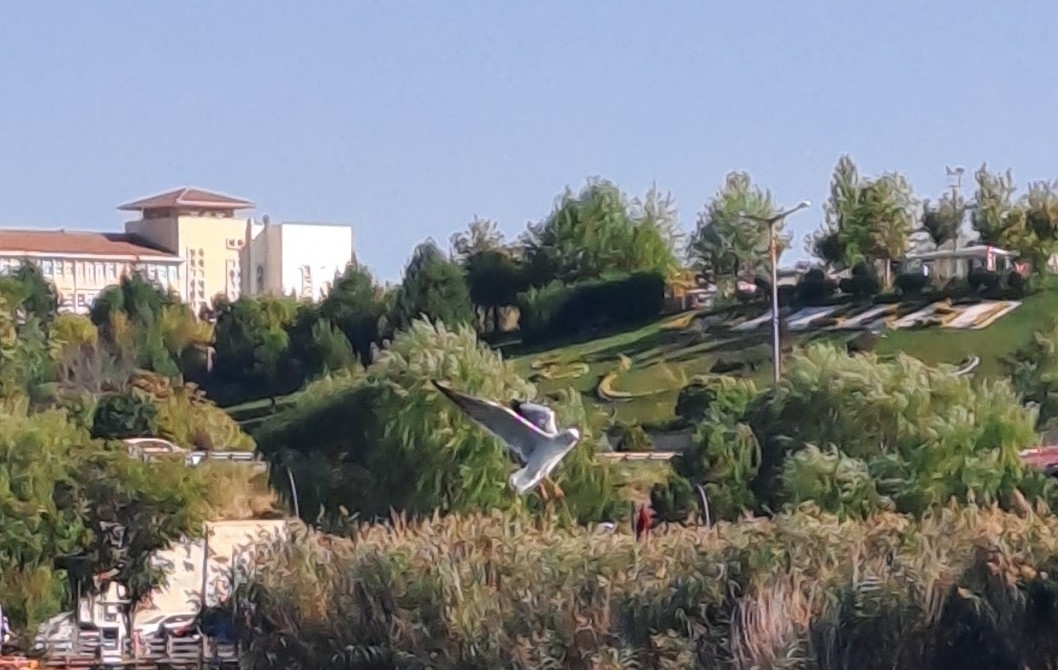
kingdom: Animalia
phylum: Chordata
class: Aves
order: Charadriiformes
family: Laridae
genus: Chroicocephalus
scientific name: Chroicocephalus ridibundus
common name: Black-headed gull
